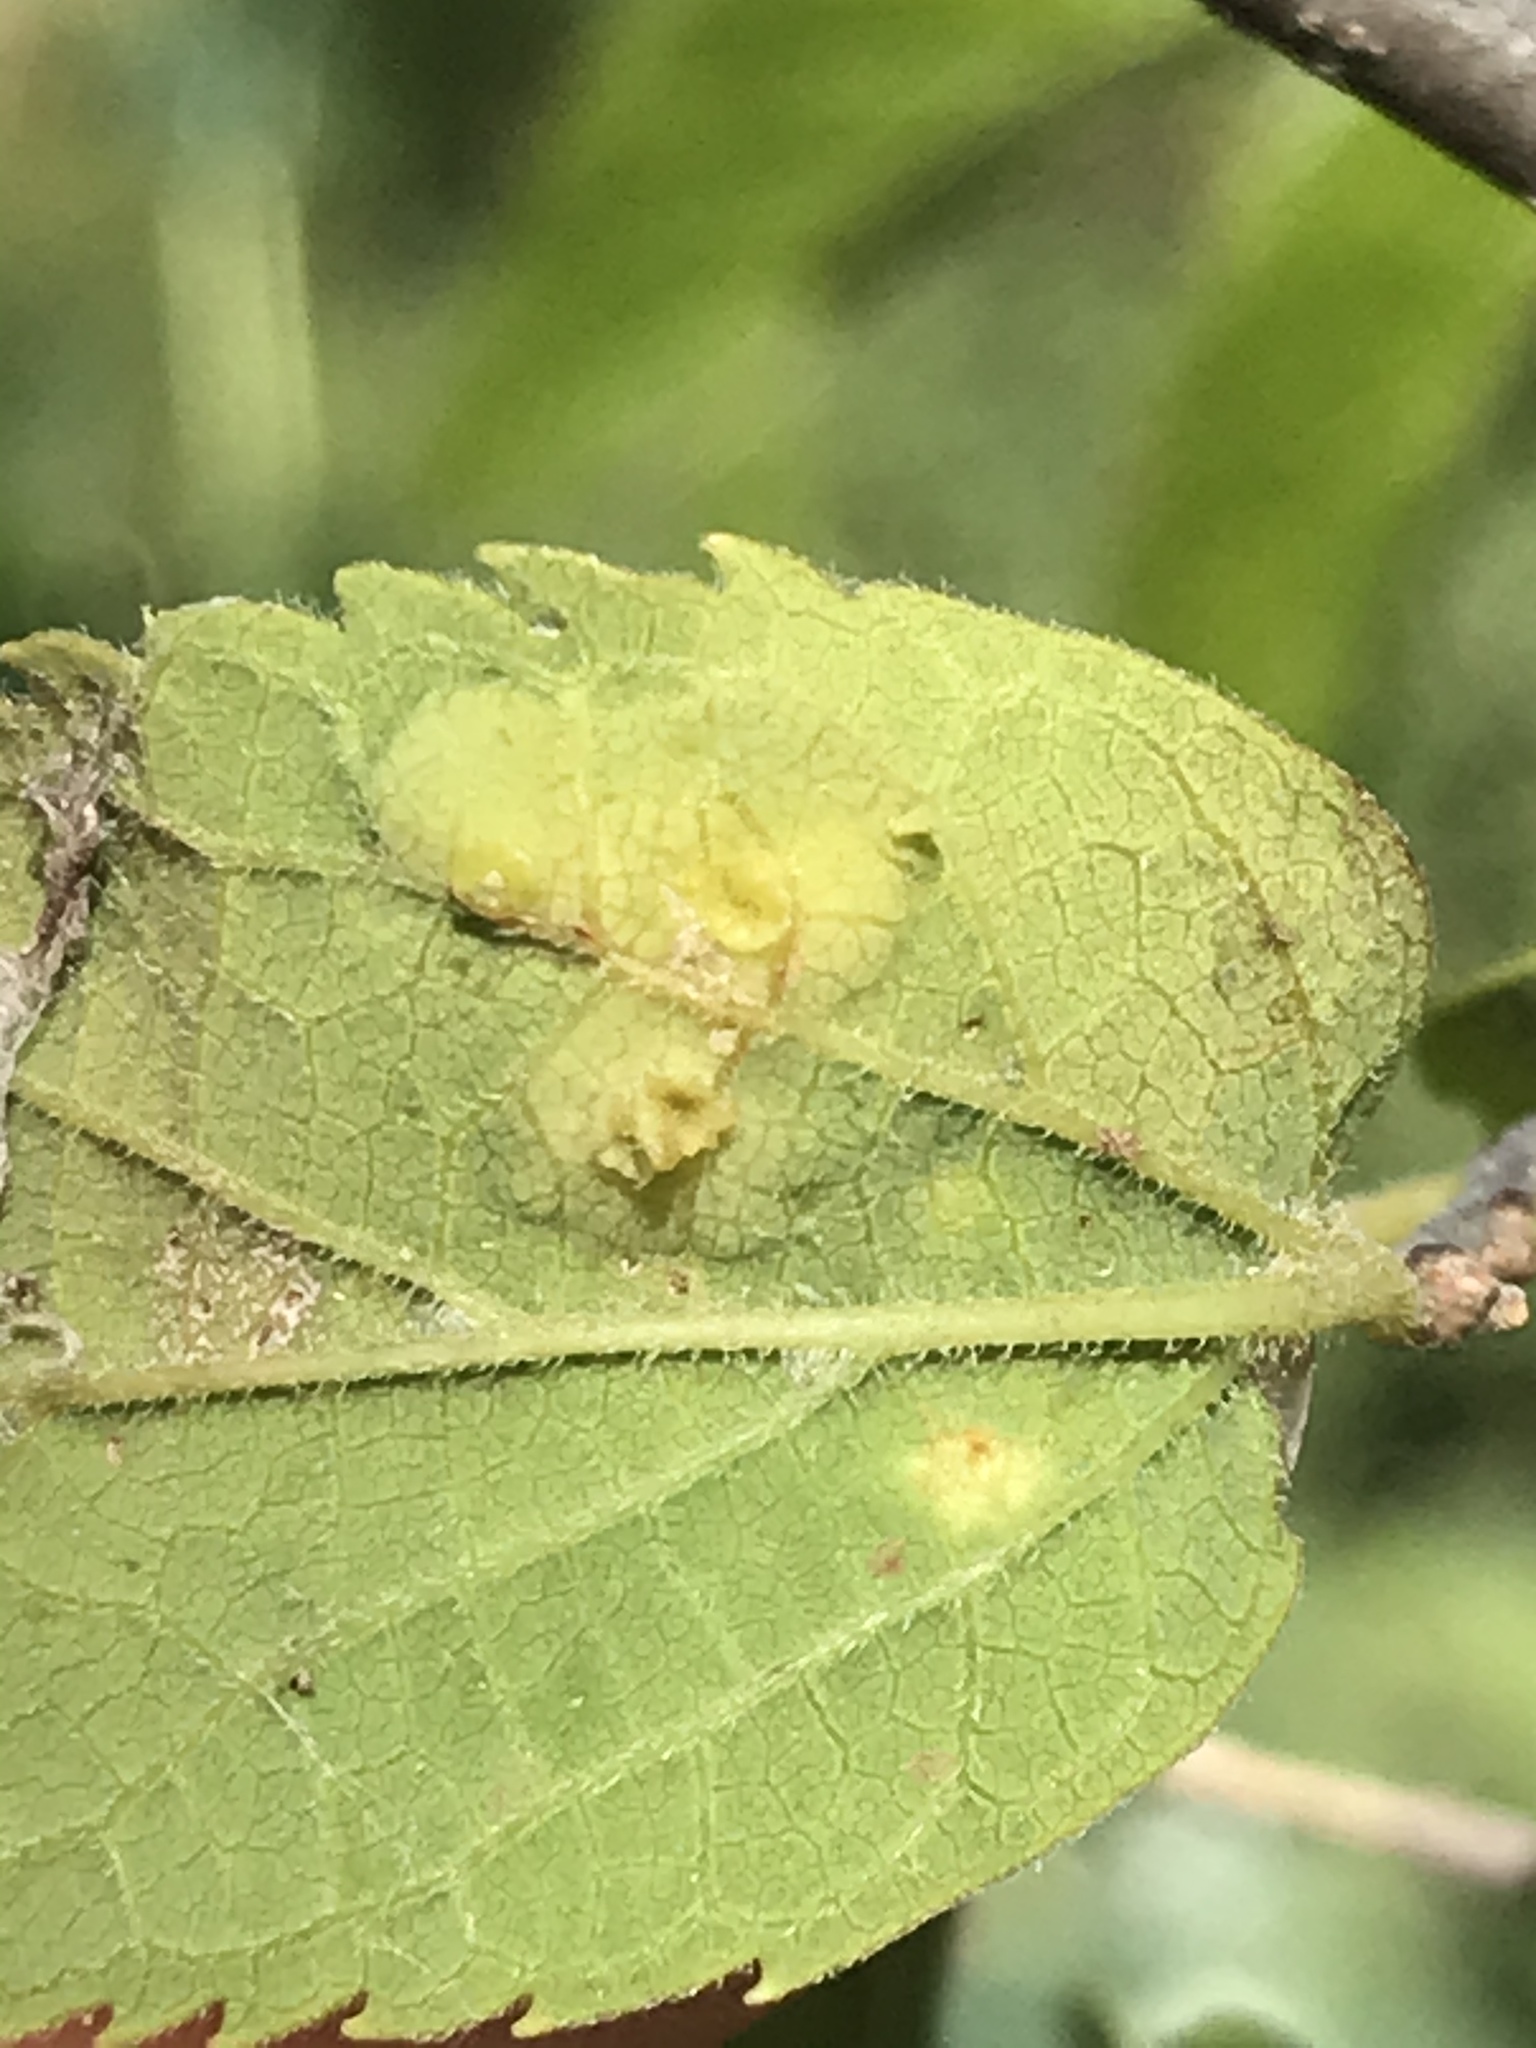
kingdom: Animalia
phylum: Arthropoda
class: Insecta
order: Hemiptera
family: Aphalaridae
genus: Pachypsylla
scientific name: Pachypsylla celtidisasterisca
